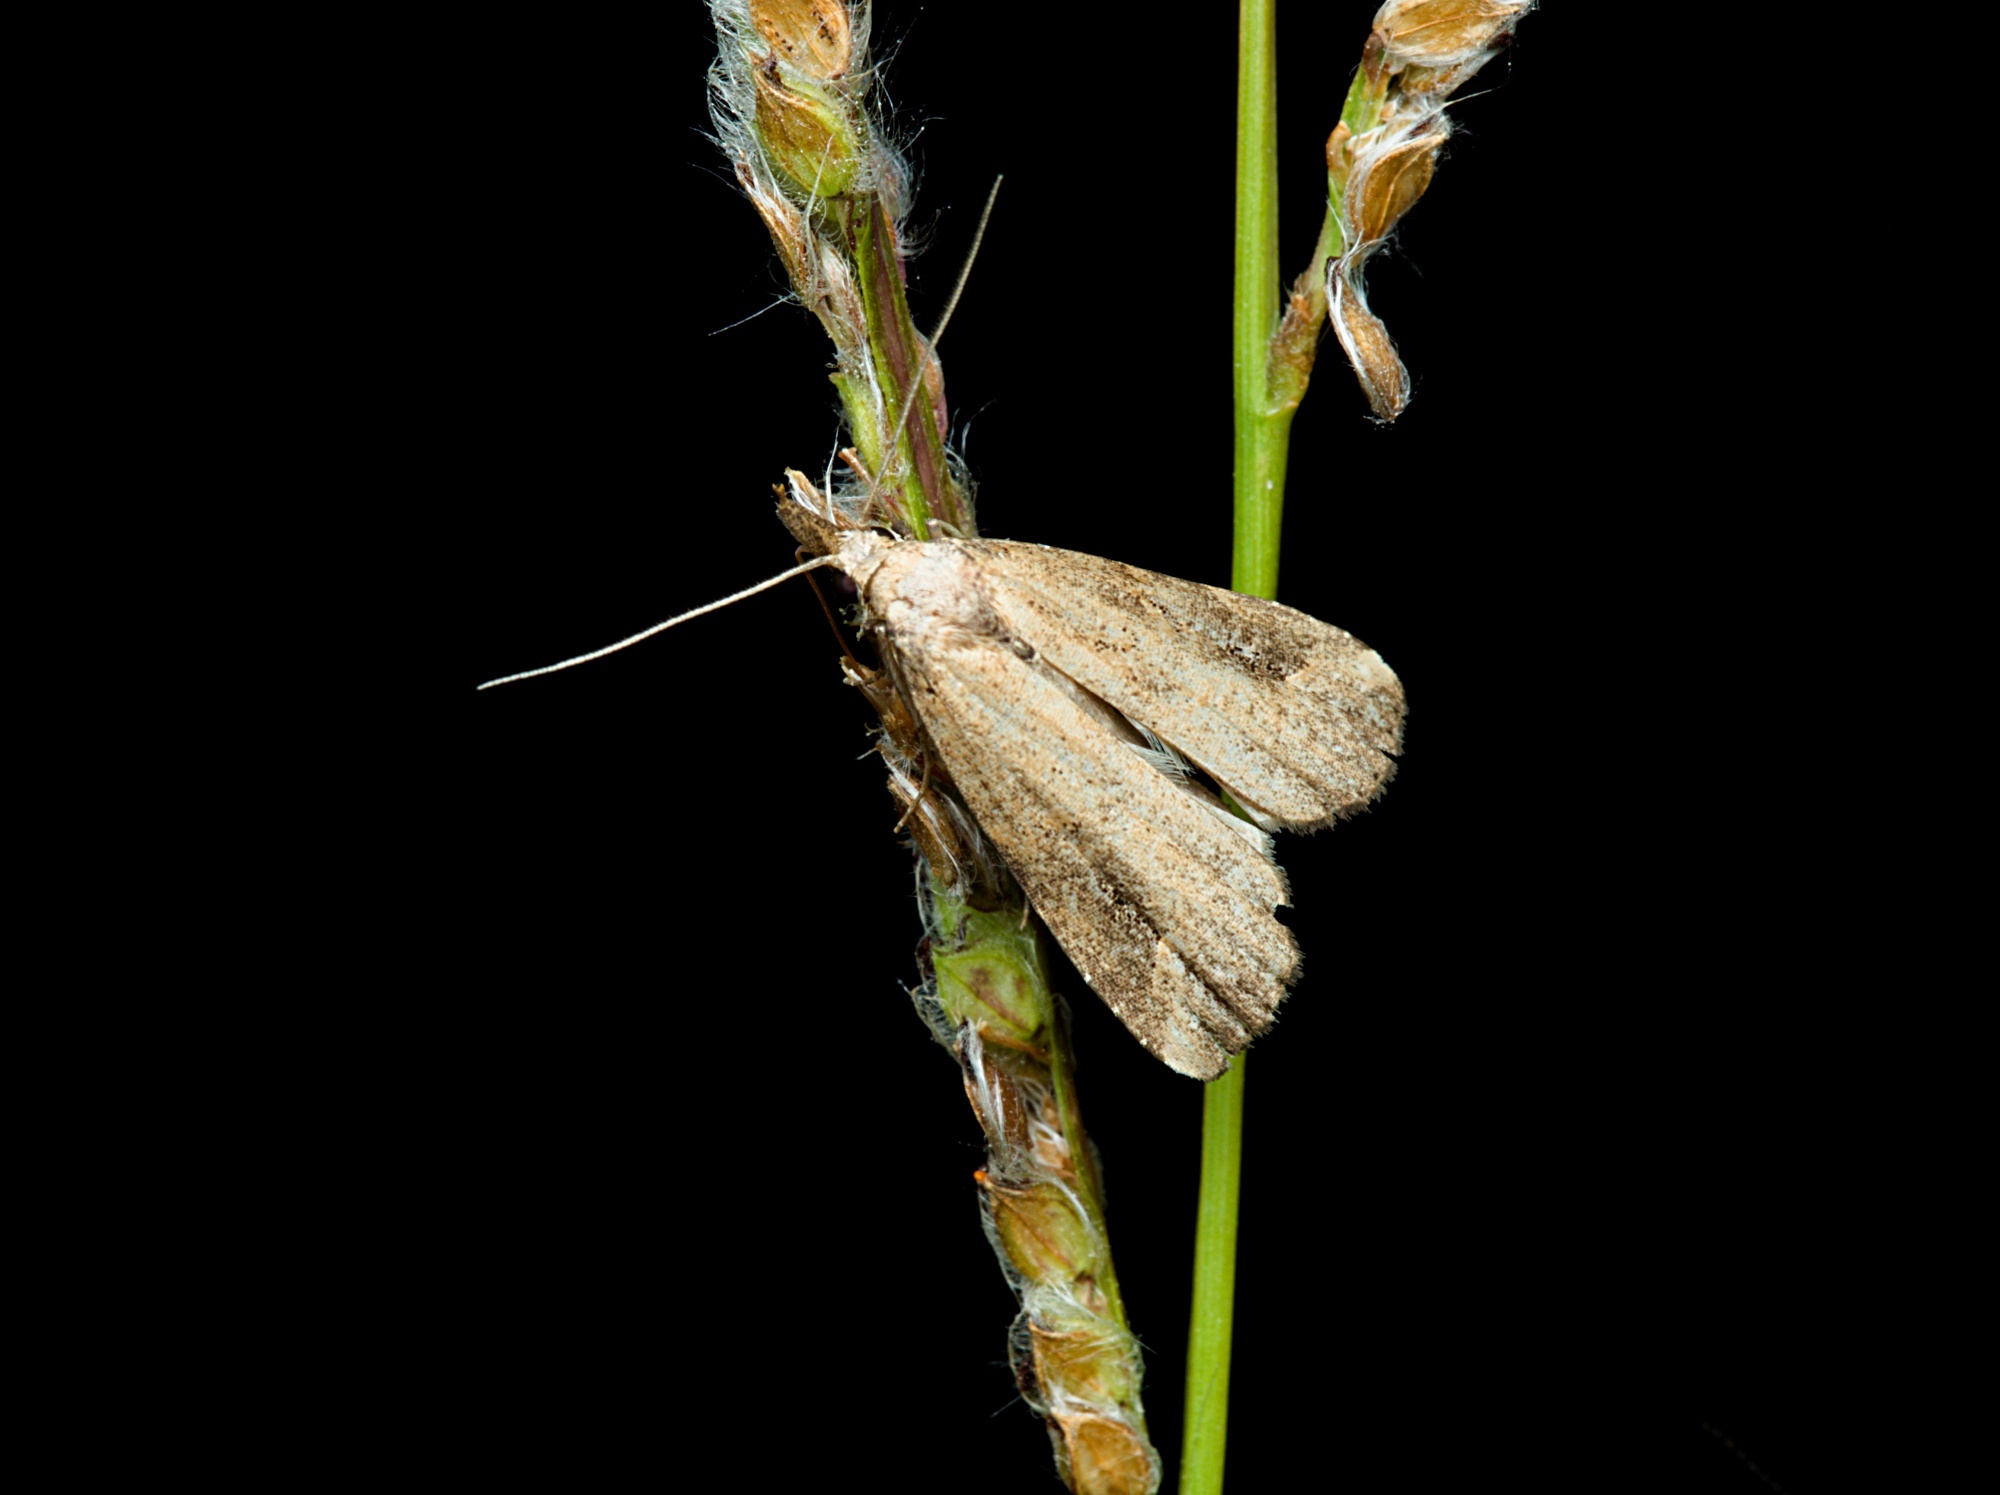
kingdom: Animalia
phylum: Arthropoda
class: Insecta
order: Lepidoptera
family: Erebidae
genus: Schrankia
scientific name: Schrankia costaestrigalis
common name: Pinion-streaked snout
